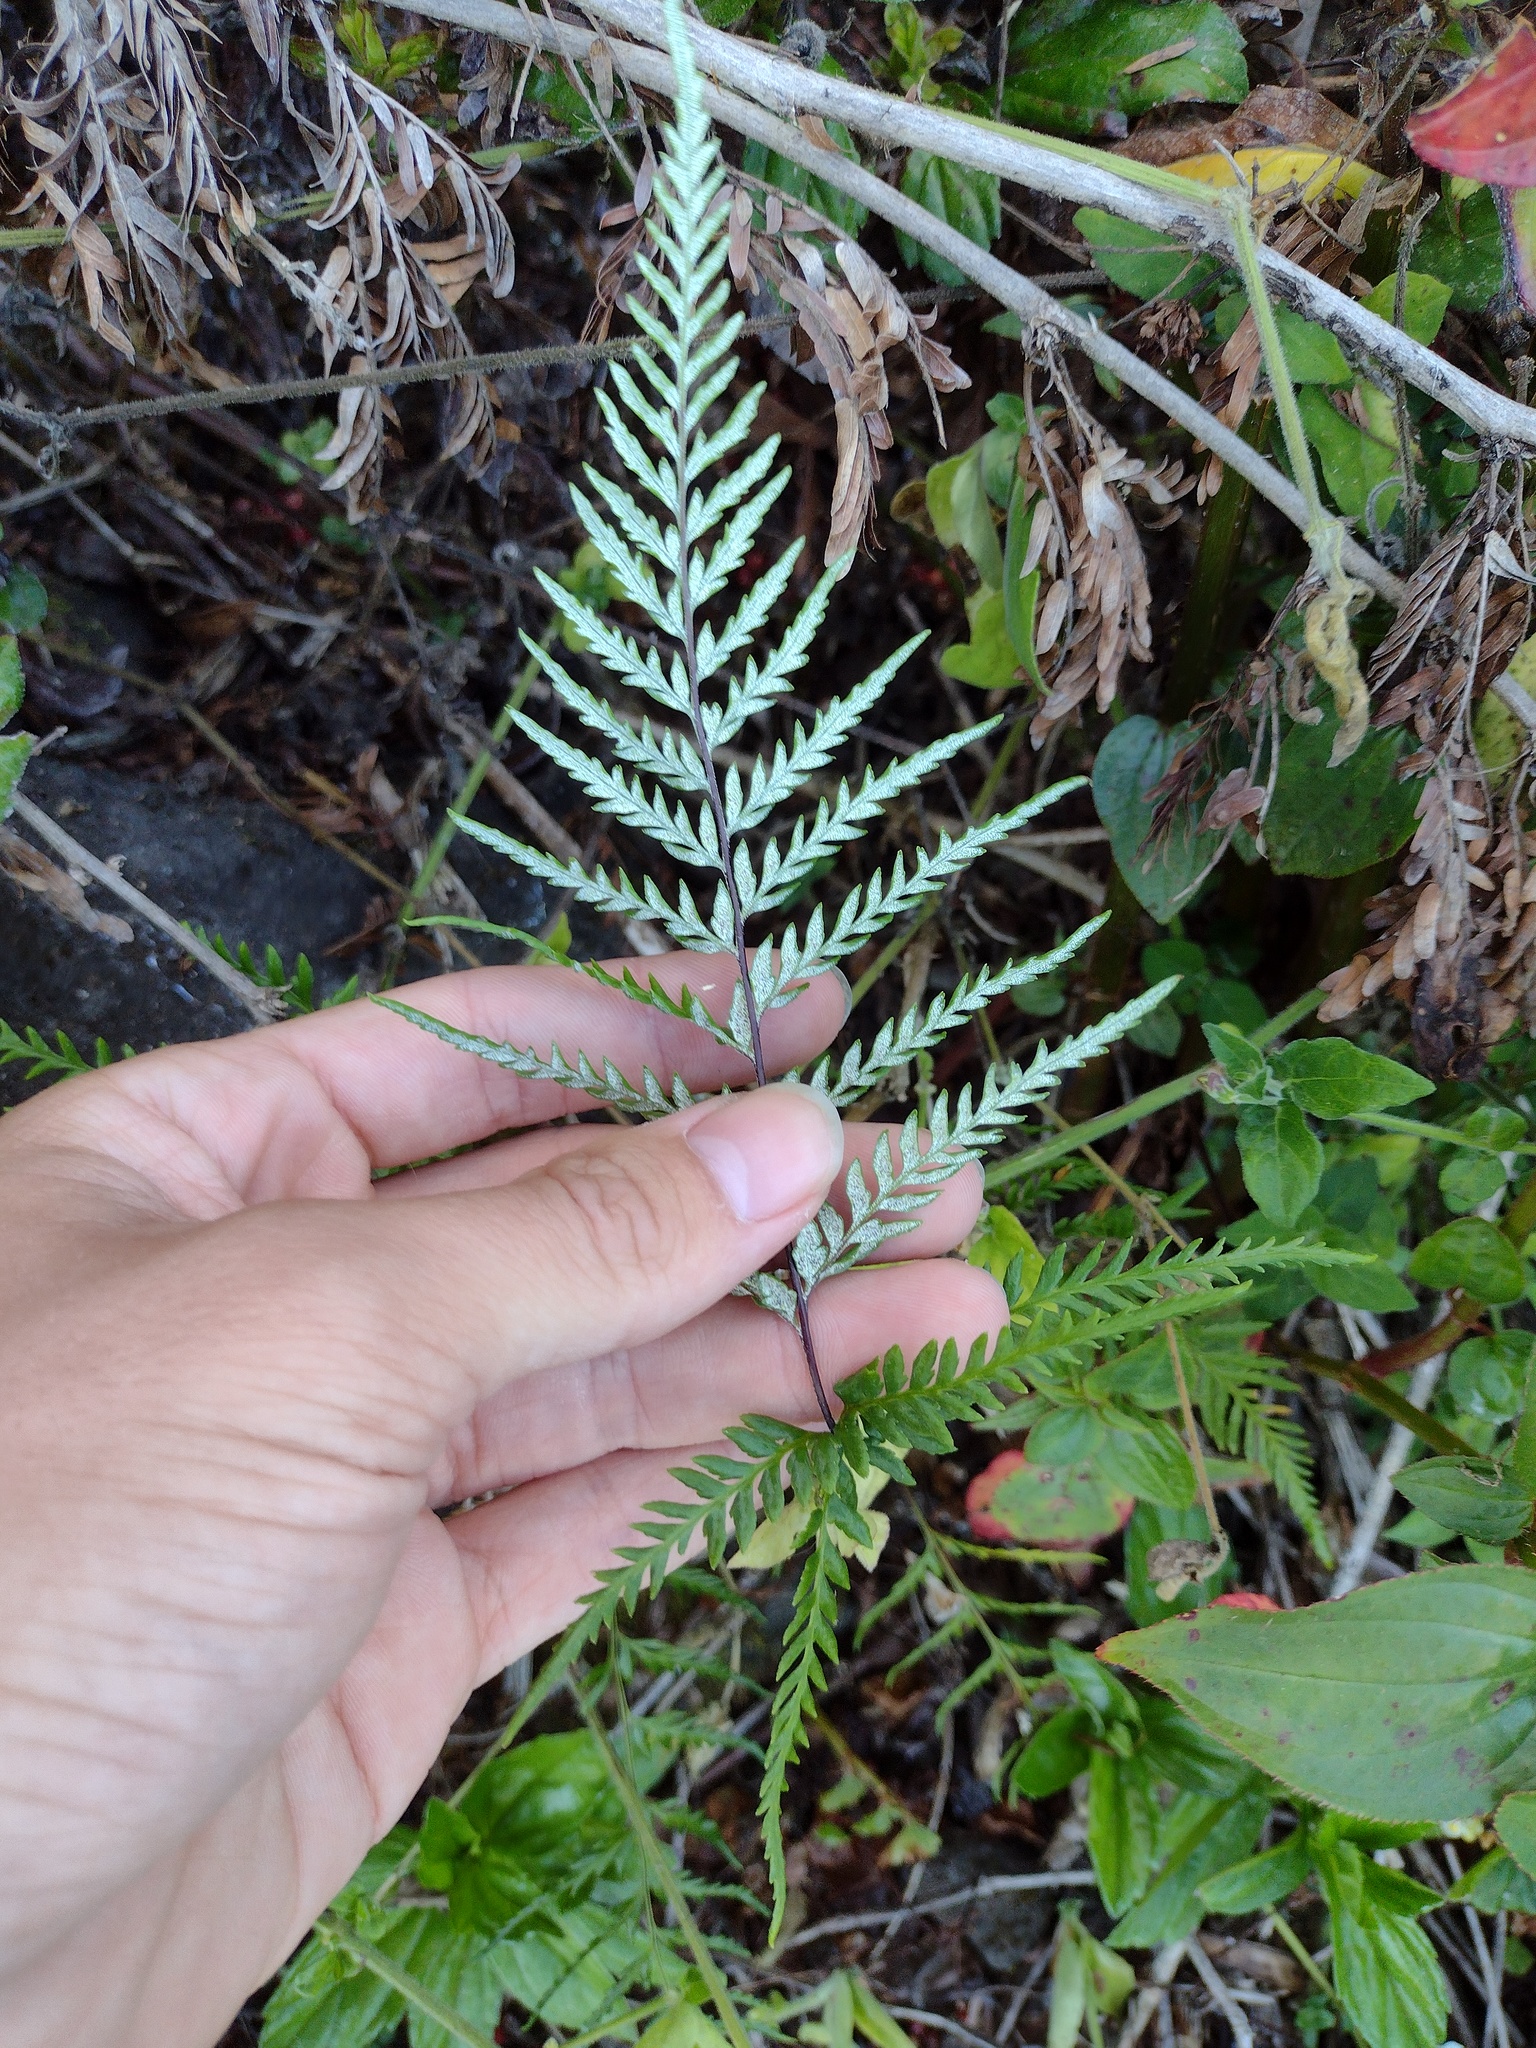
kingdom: Plantae
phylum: Tracheophyta
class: Polypodiopsida
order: Polypodiales
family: Pteridaceae
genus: Pityrogramma
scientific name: Pityrogramma calomelanos
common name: Dixie silverback fern
